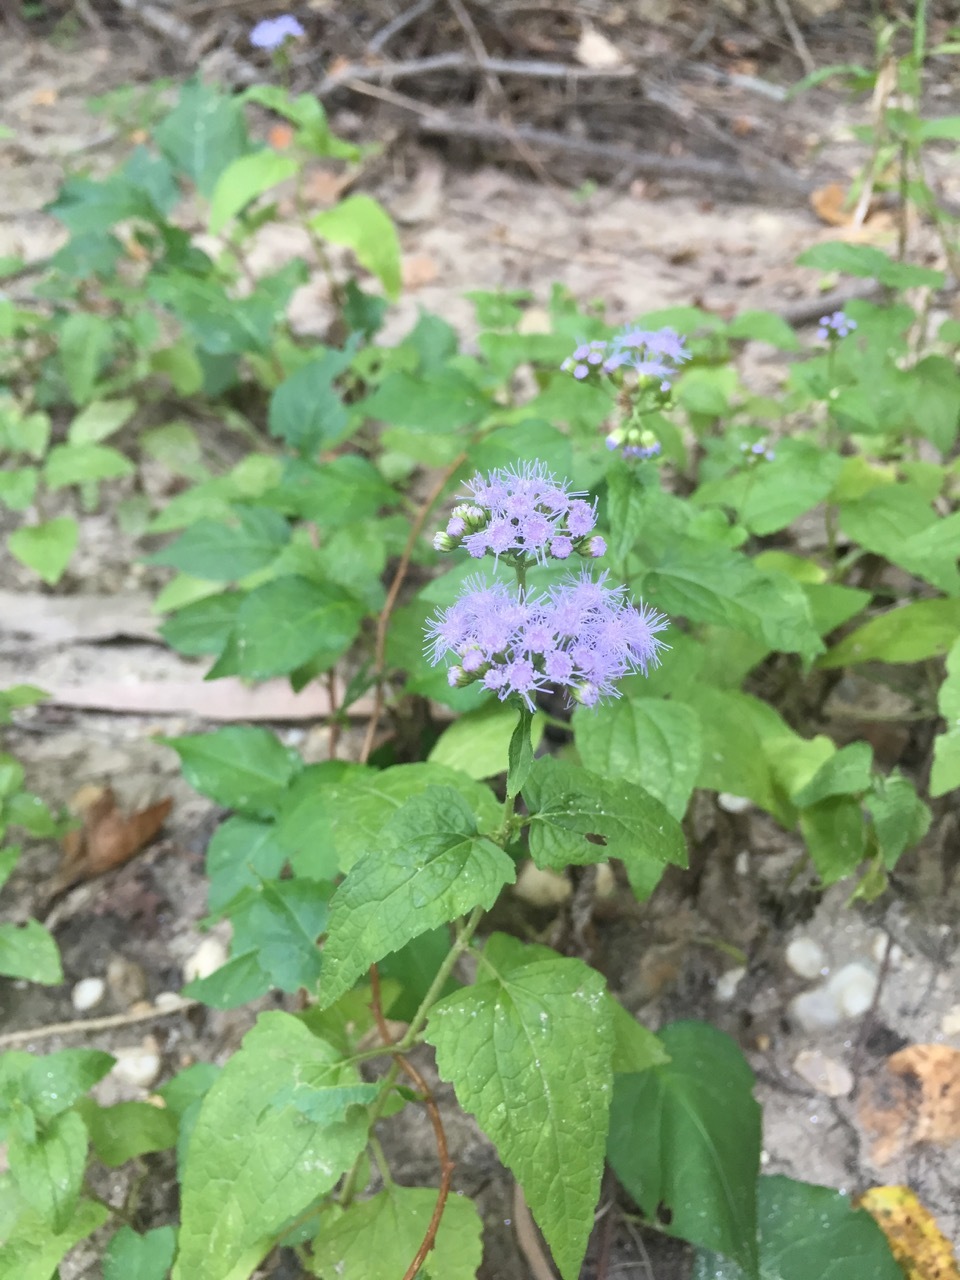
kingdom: Plantae
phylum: Tracheophyta
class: Magnoliopsida
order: Asterales
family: Asteraceae
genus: Conoclinium
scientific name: Conoclinium coelestinum
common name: Blue mistflower
